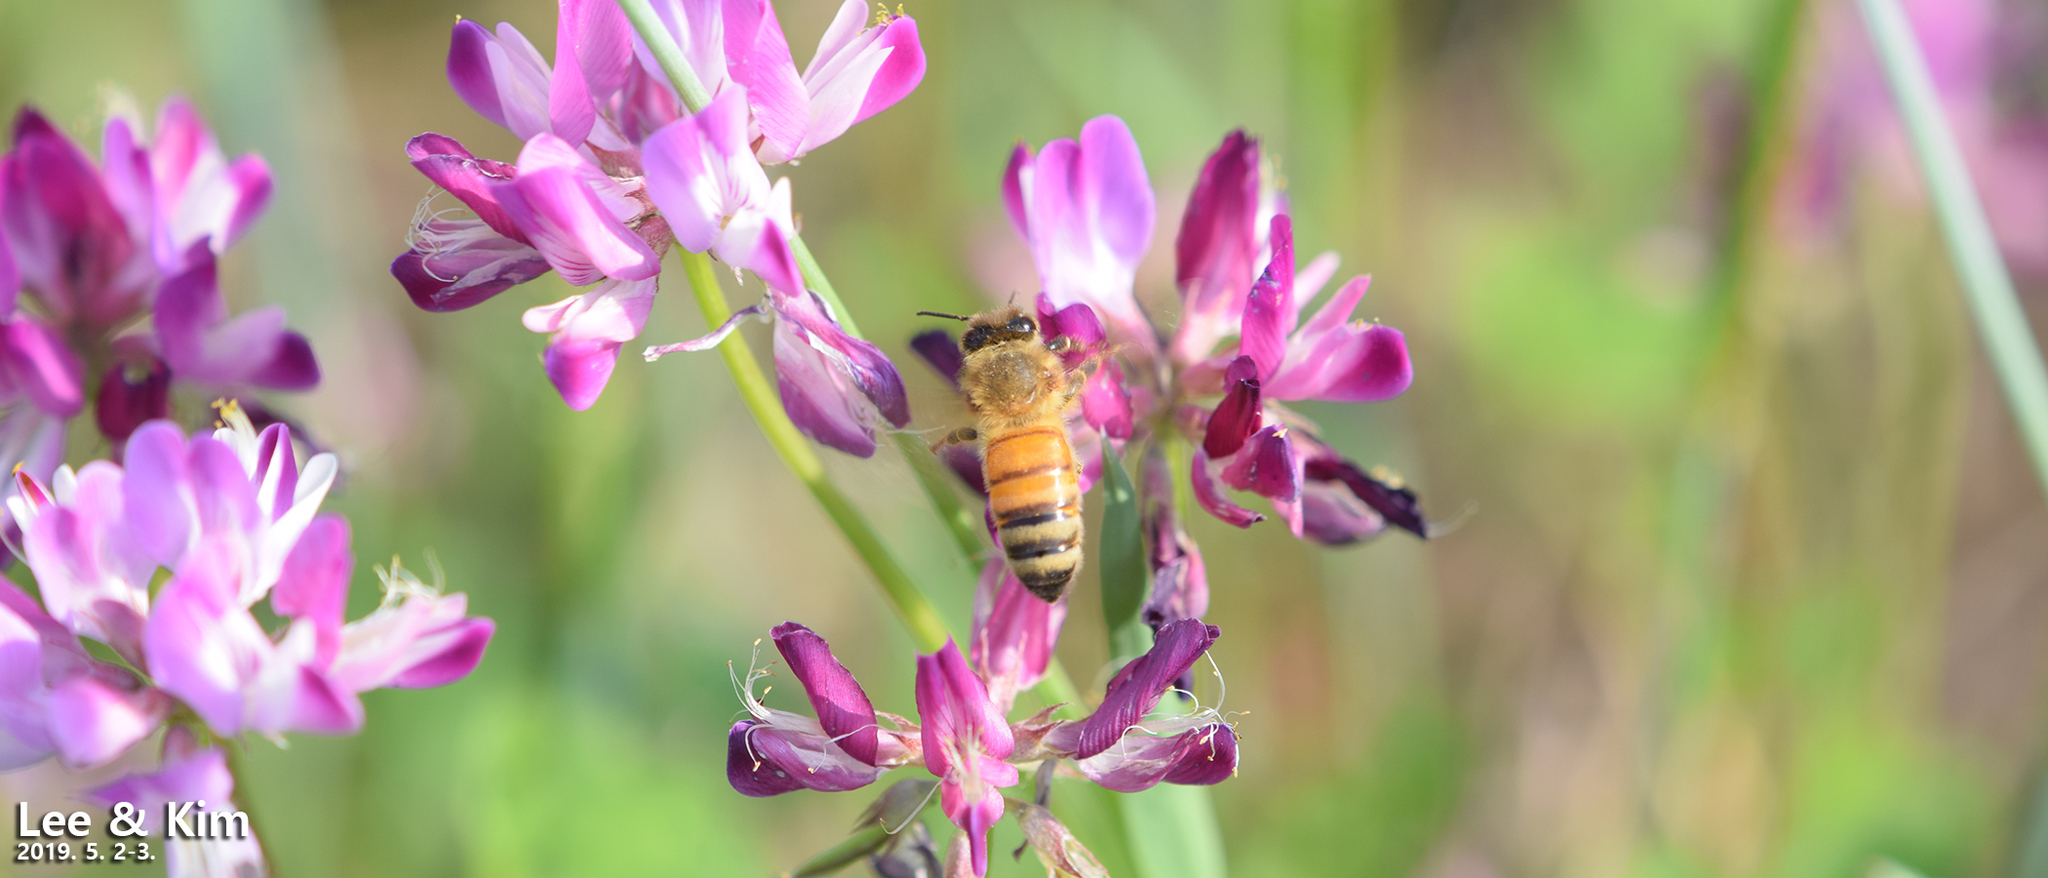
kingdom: Animalia
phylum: Arthropoda
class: Insecta
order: Hymenoptera
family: Apidae
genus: Apis
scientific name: Apis mellifera
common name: Honey bee
